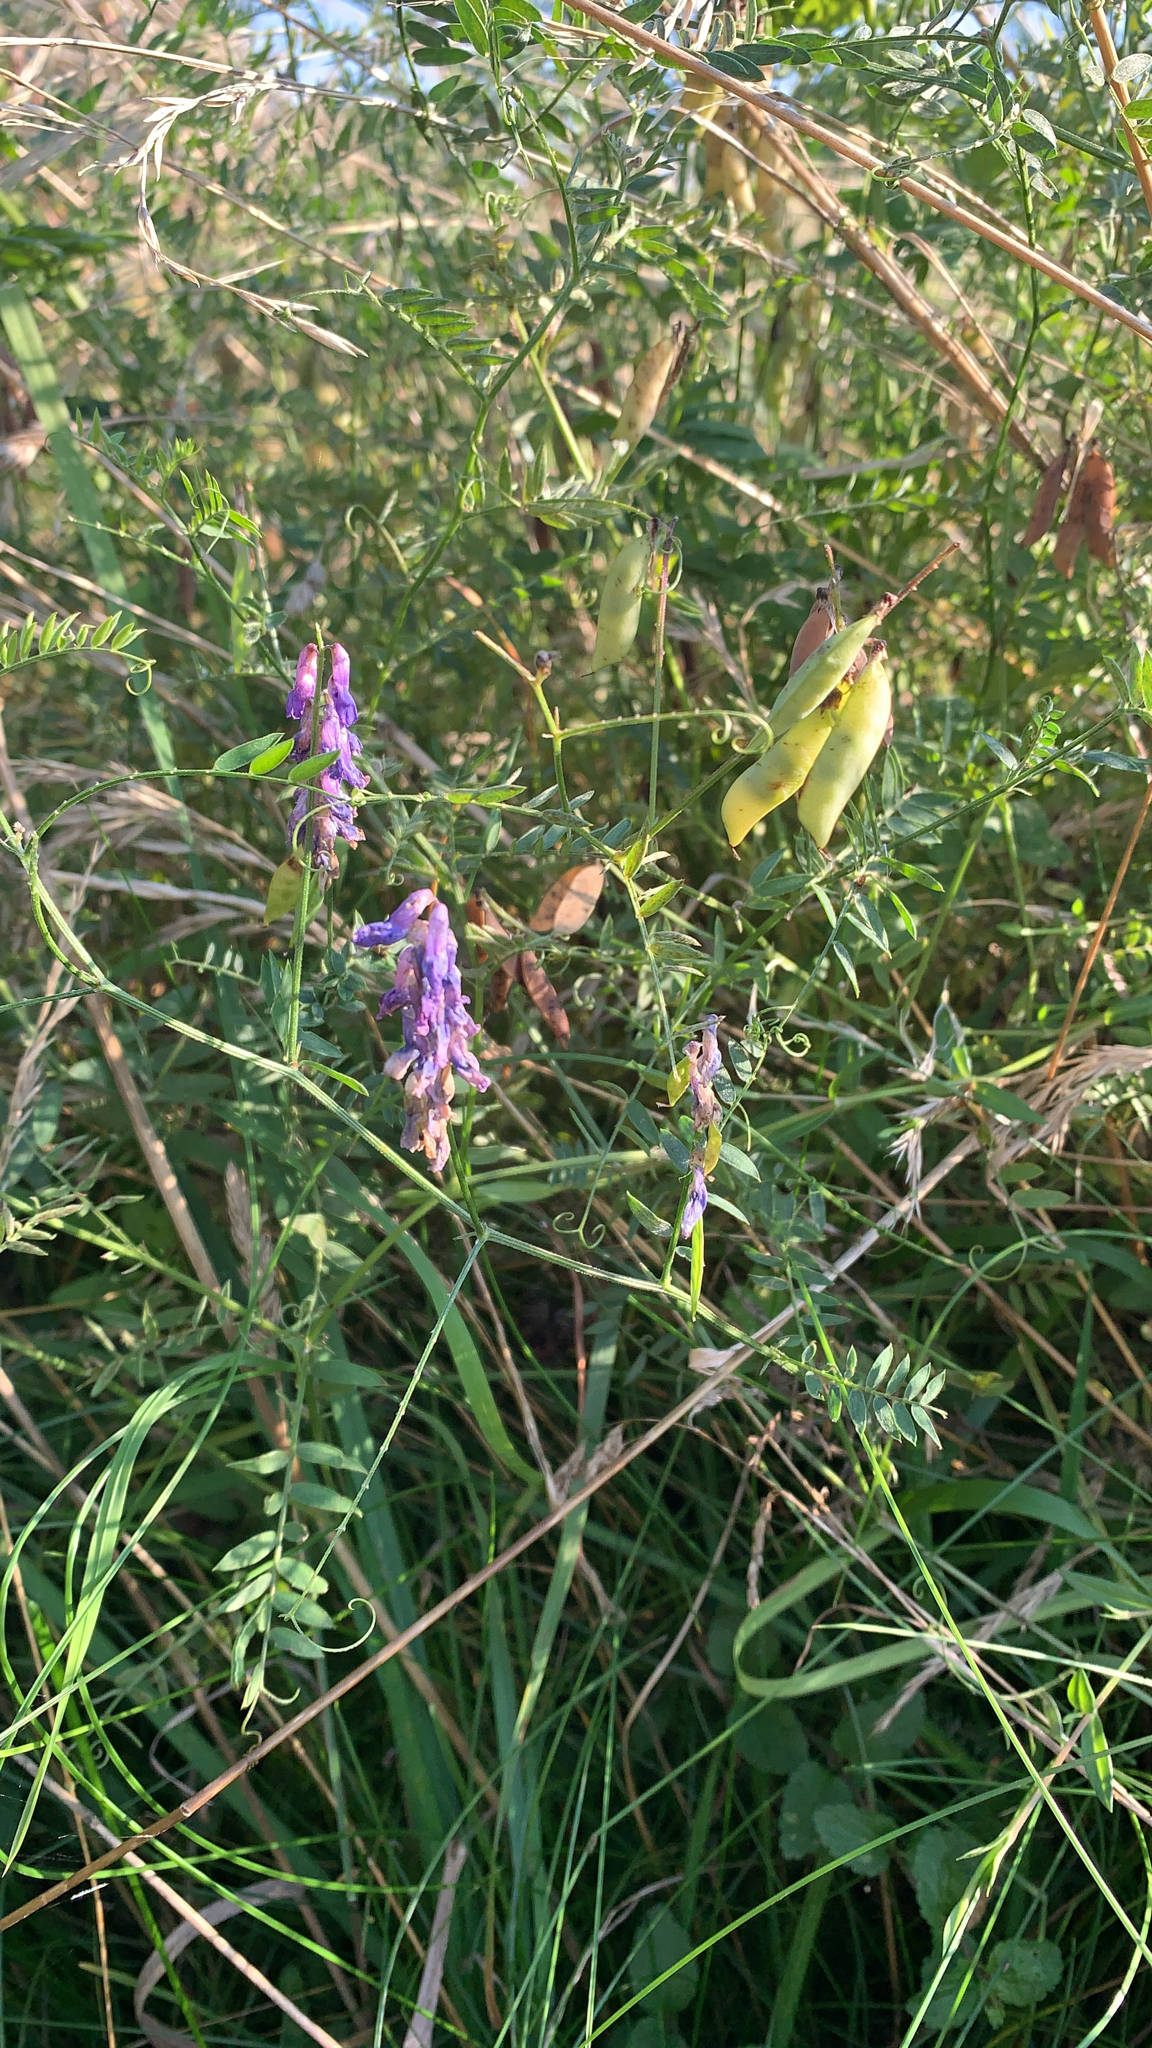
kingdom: Plantae
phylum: Tracheophyta
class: Magnoliopsida
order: Fabales
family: Fabaceae
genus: Vicia
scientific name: Vicia cracca
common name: Bird vetch
